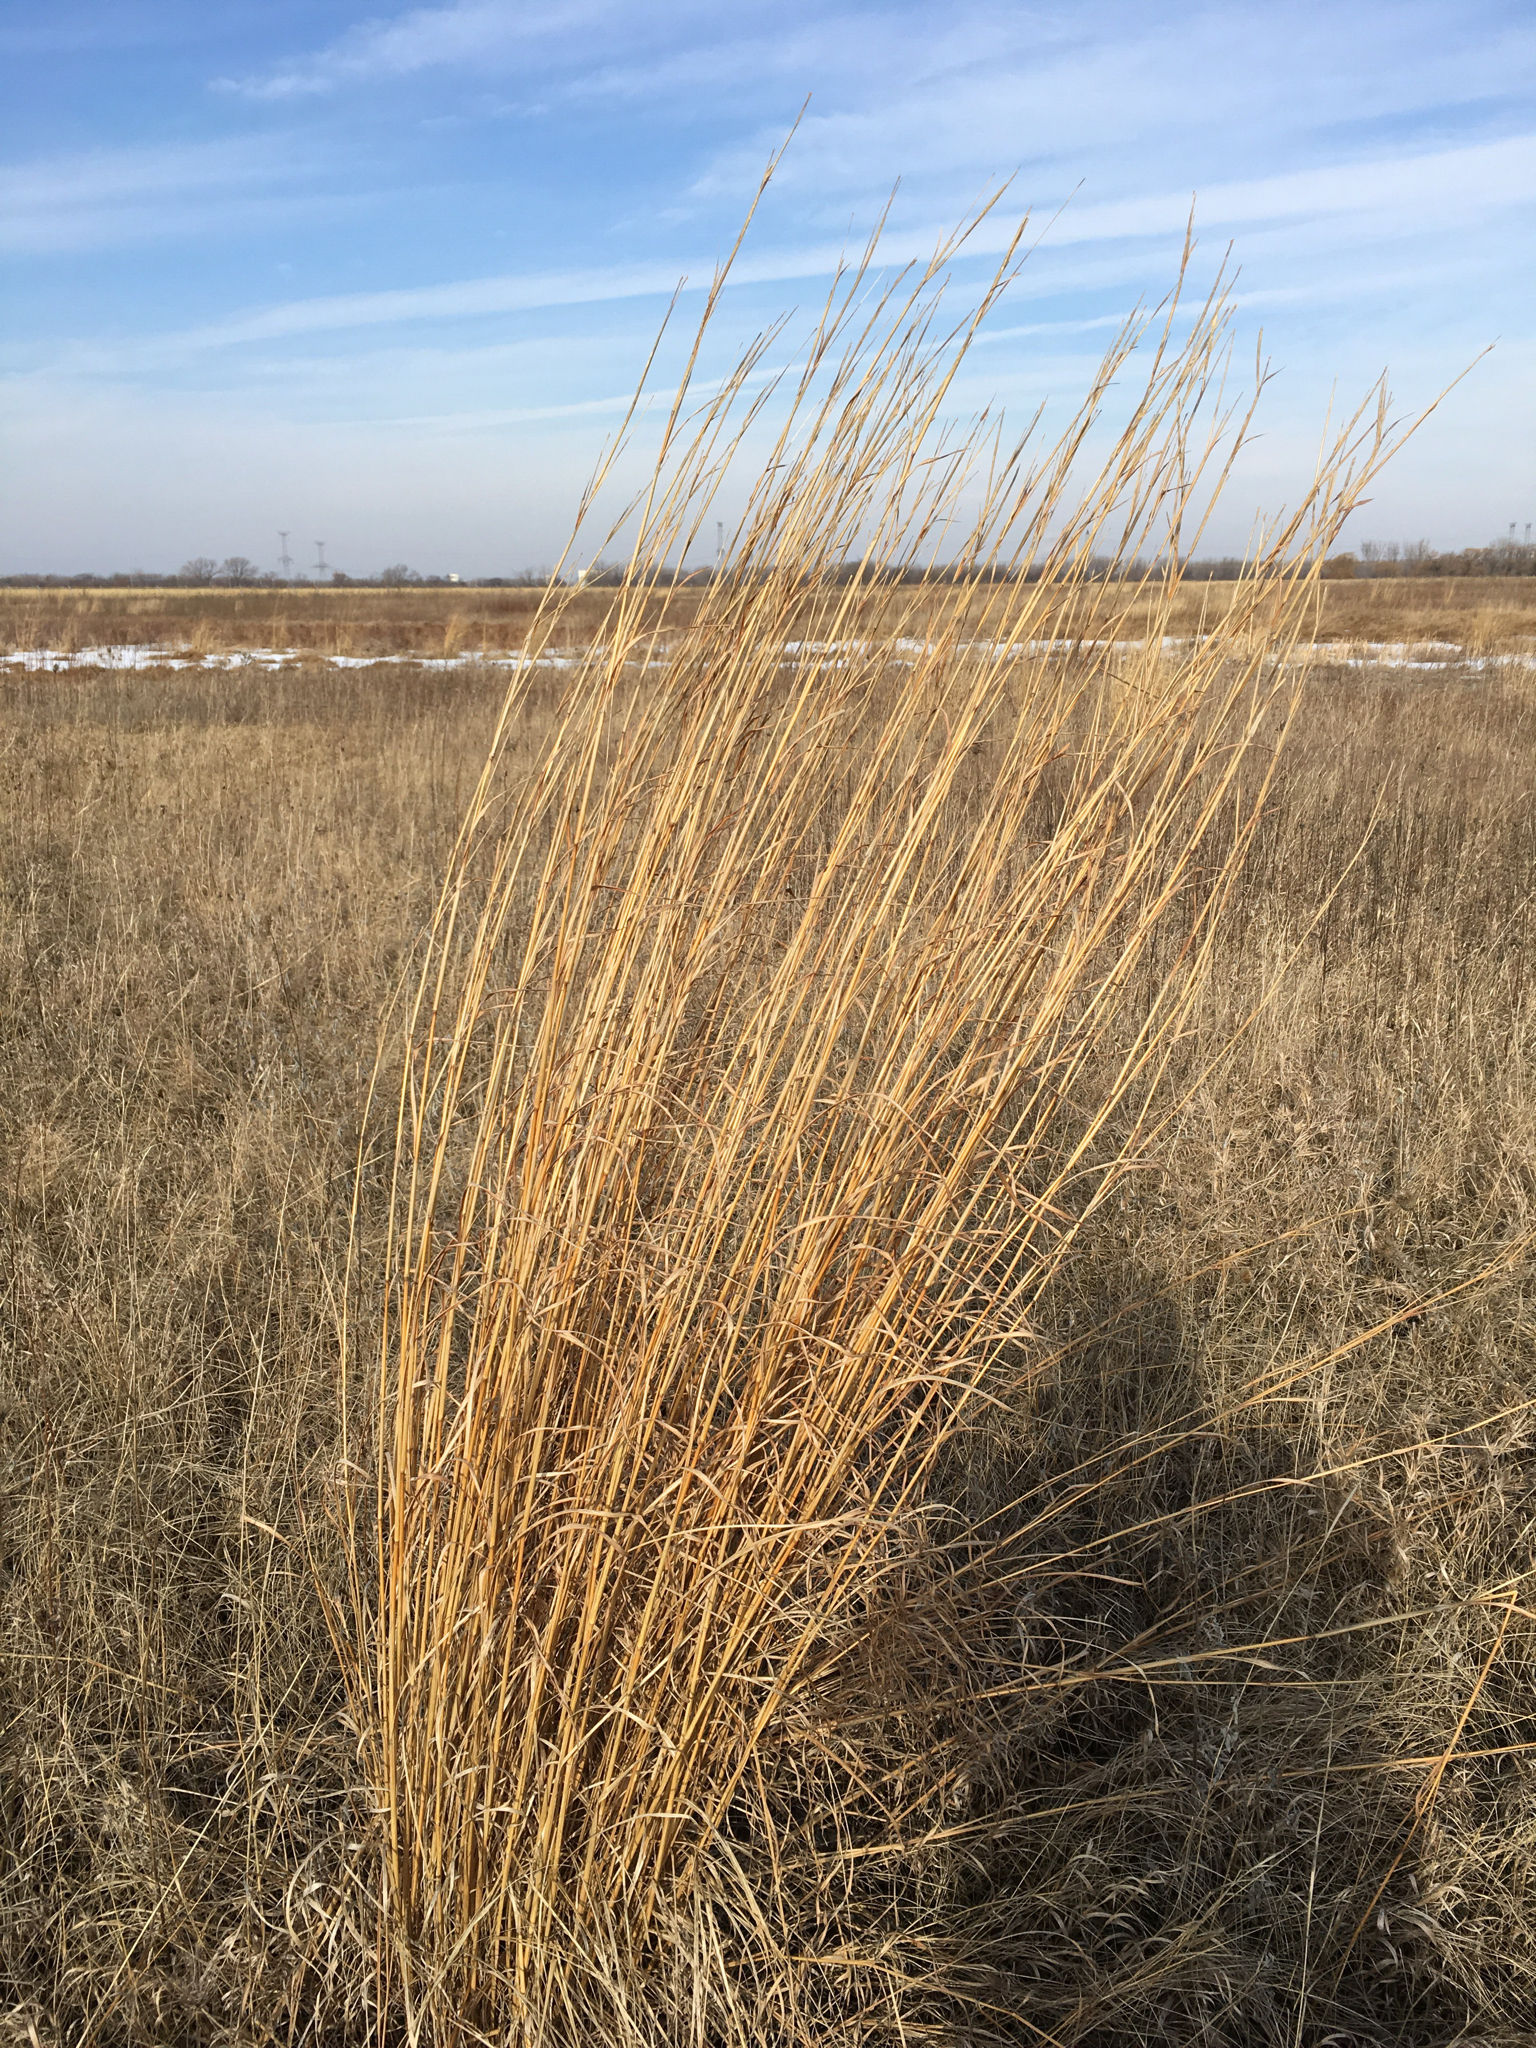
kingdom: Plantae
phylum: Tracheophyta
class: Liliopsida
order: Poales
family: Poaceae
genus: Andropogon
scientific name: Andropogon gerardi
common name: Big bluestem
